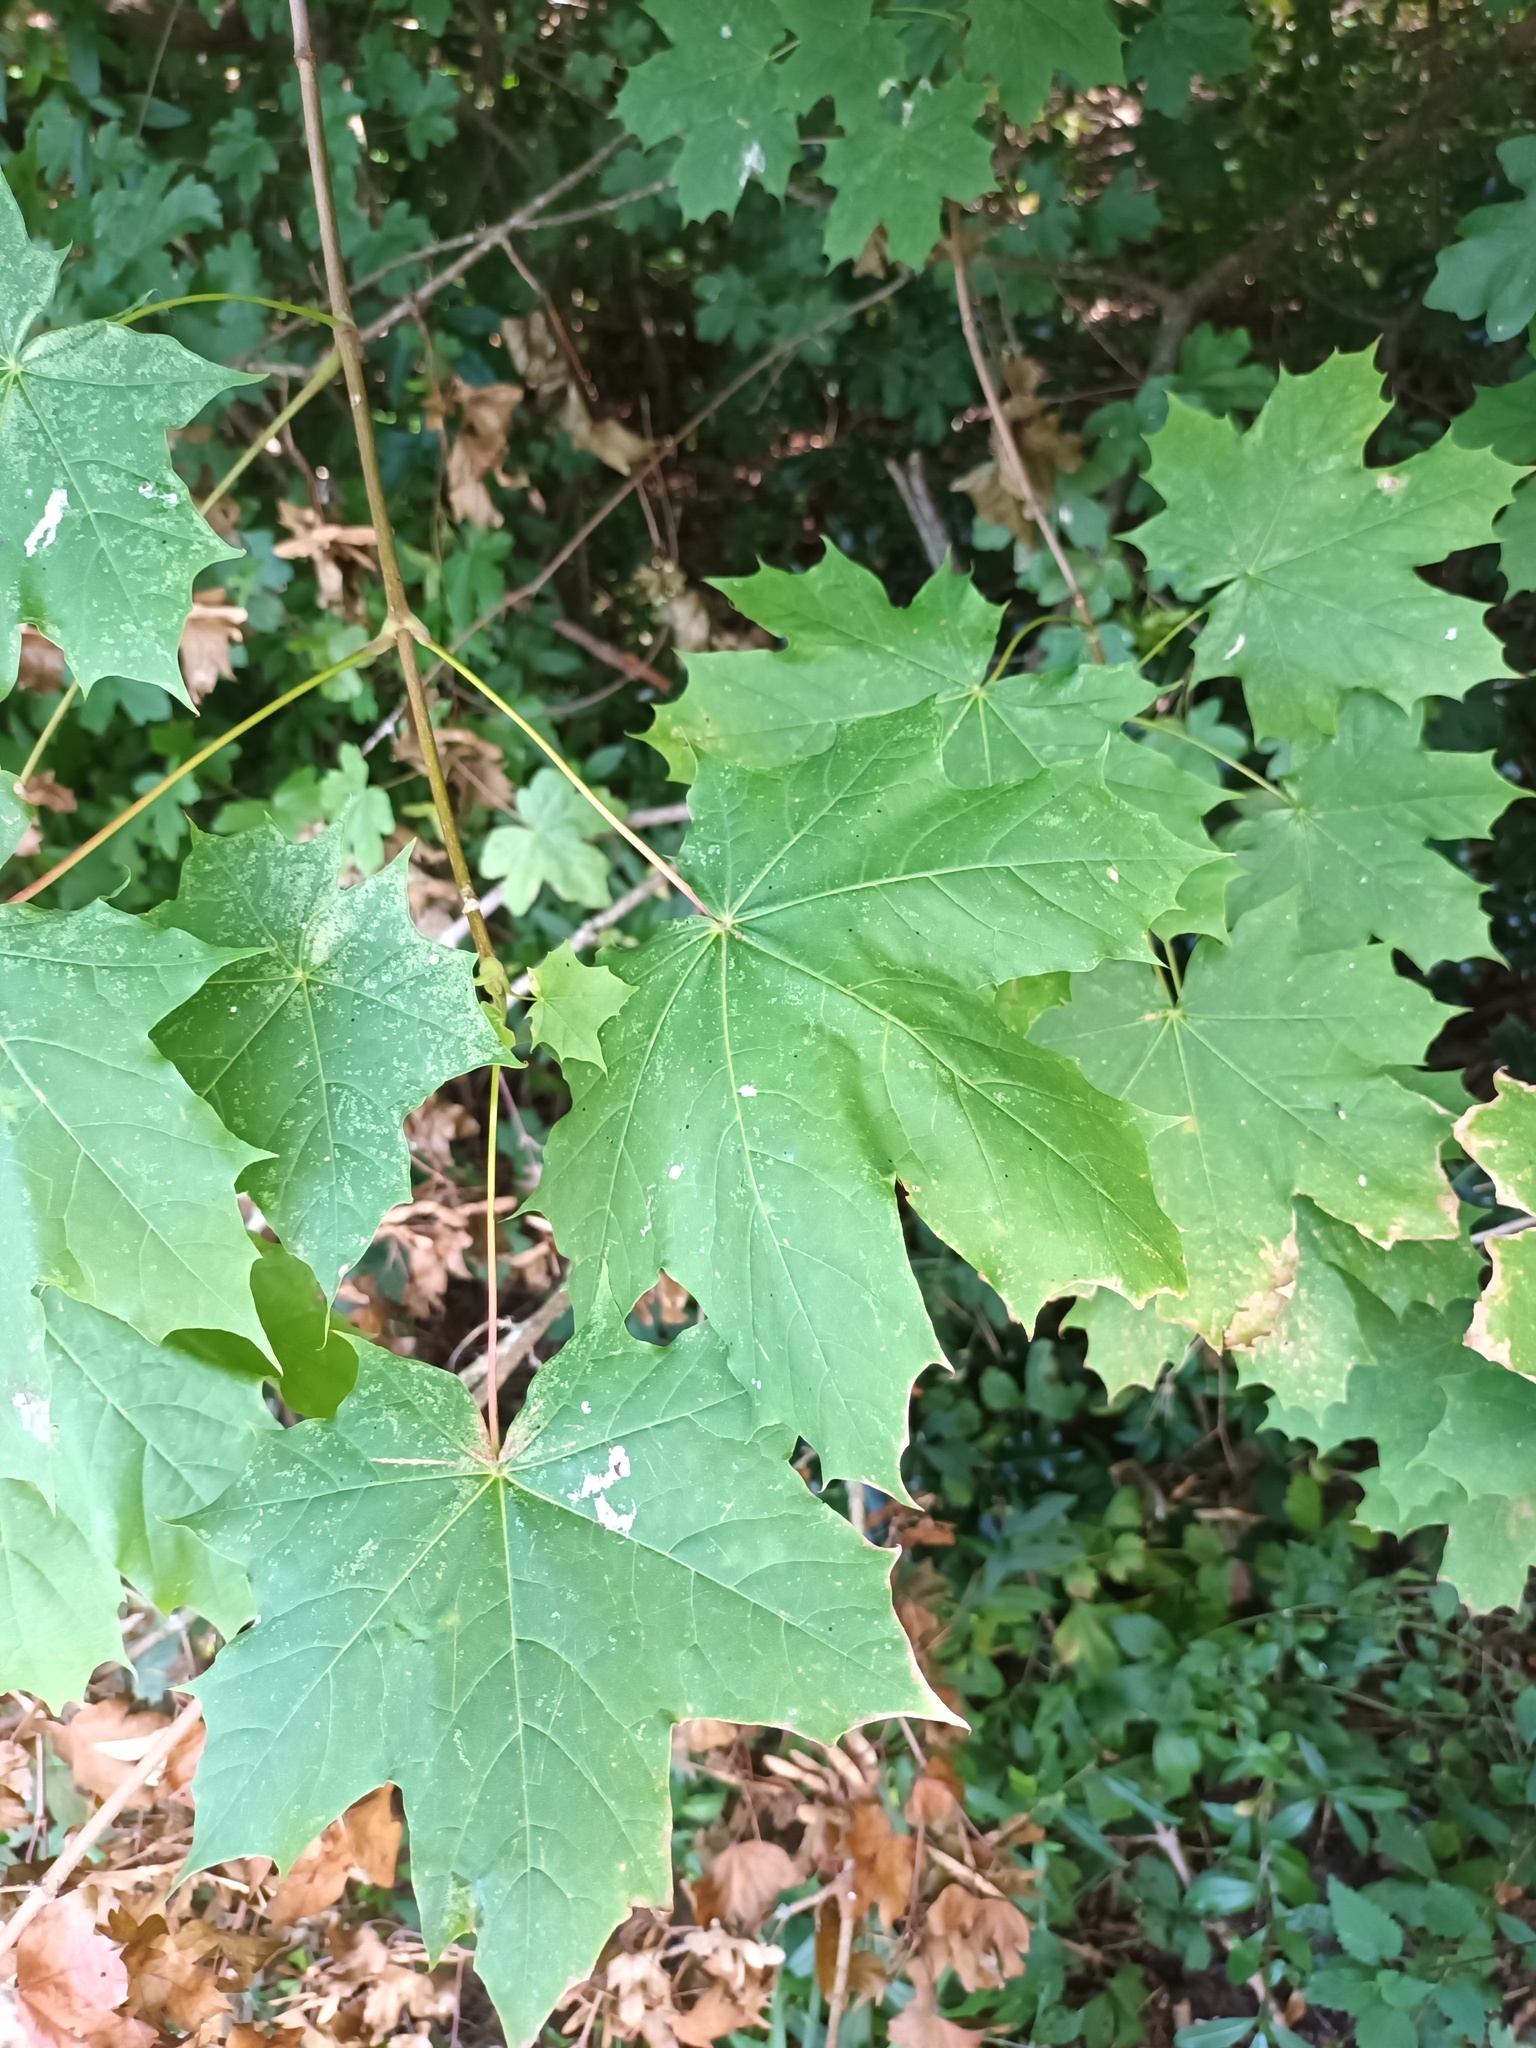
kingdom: Plantae
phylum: Tracheophyta
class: Magnoliopsida
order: Sapindales
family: Sapindaceae
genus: Acer
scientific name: Acer platanoides
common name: Norway maple
